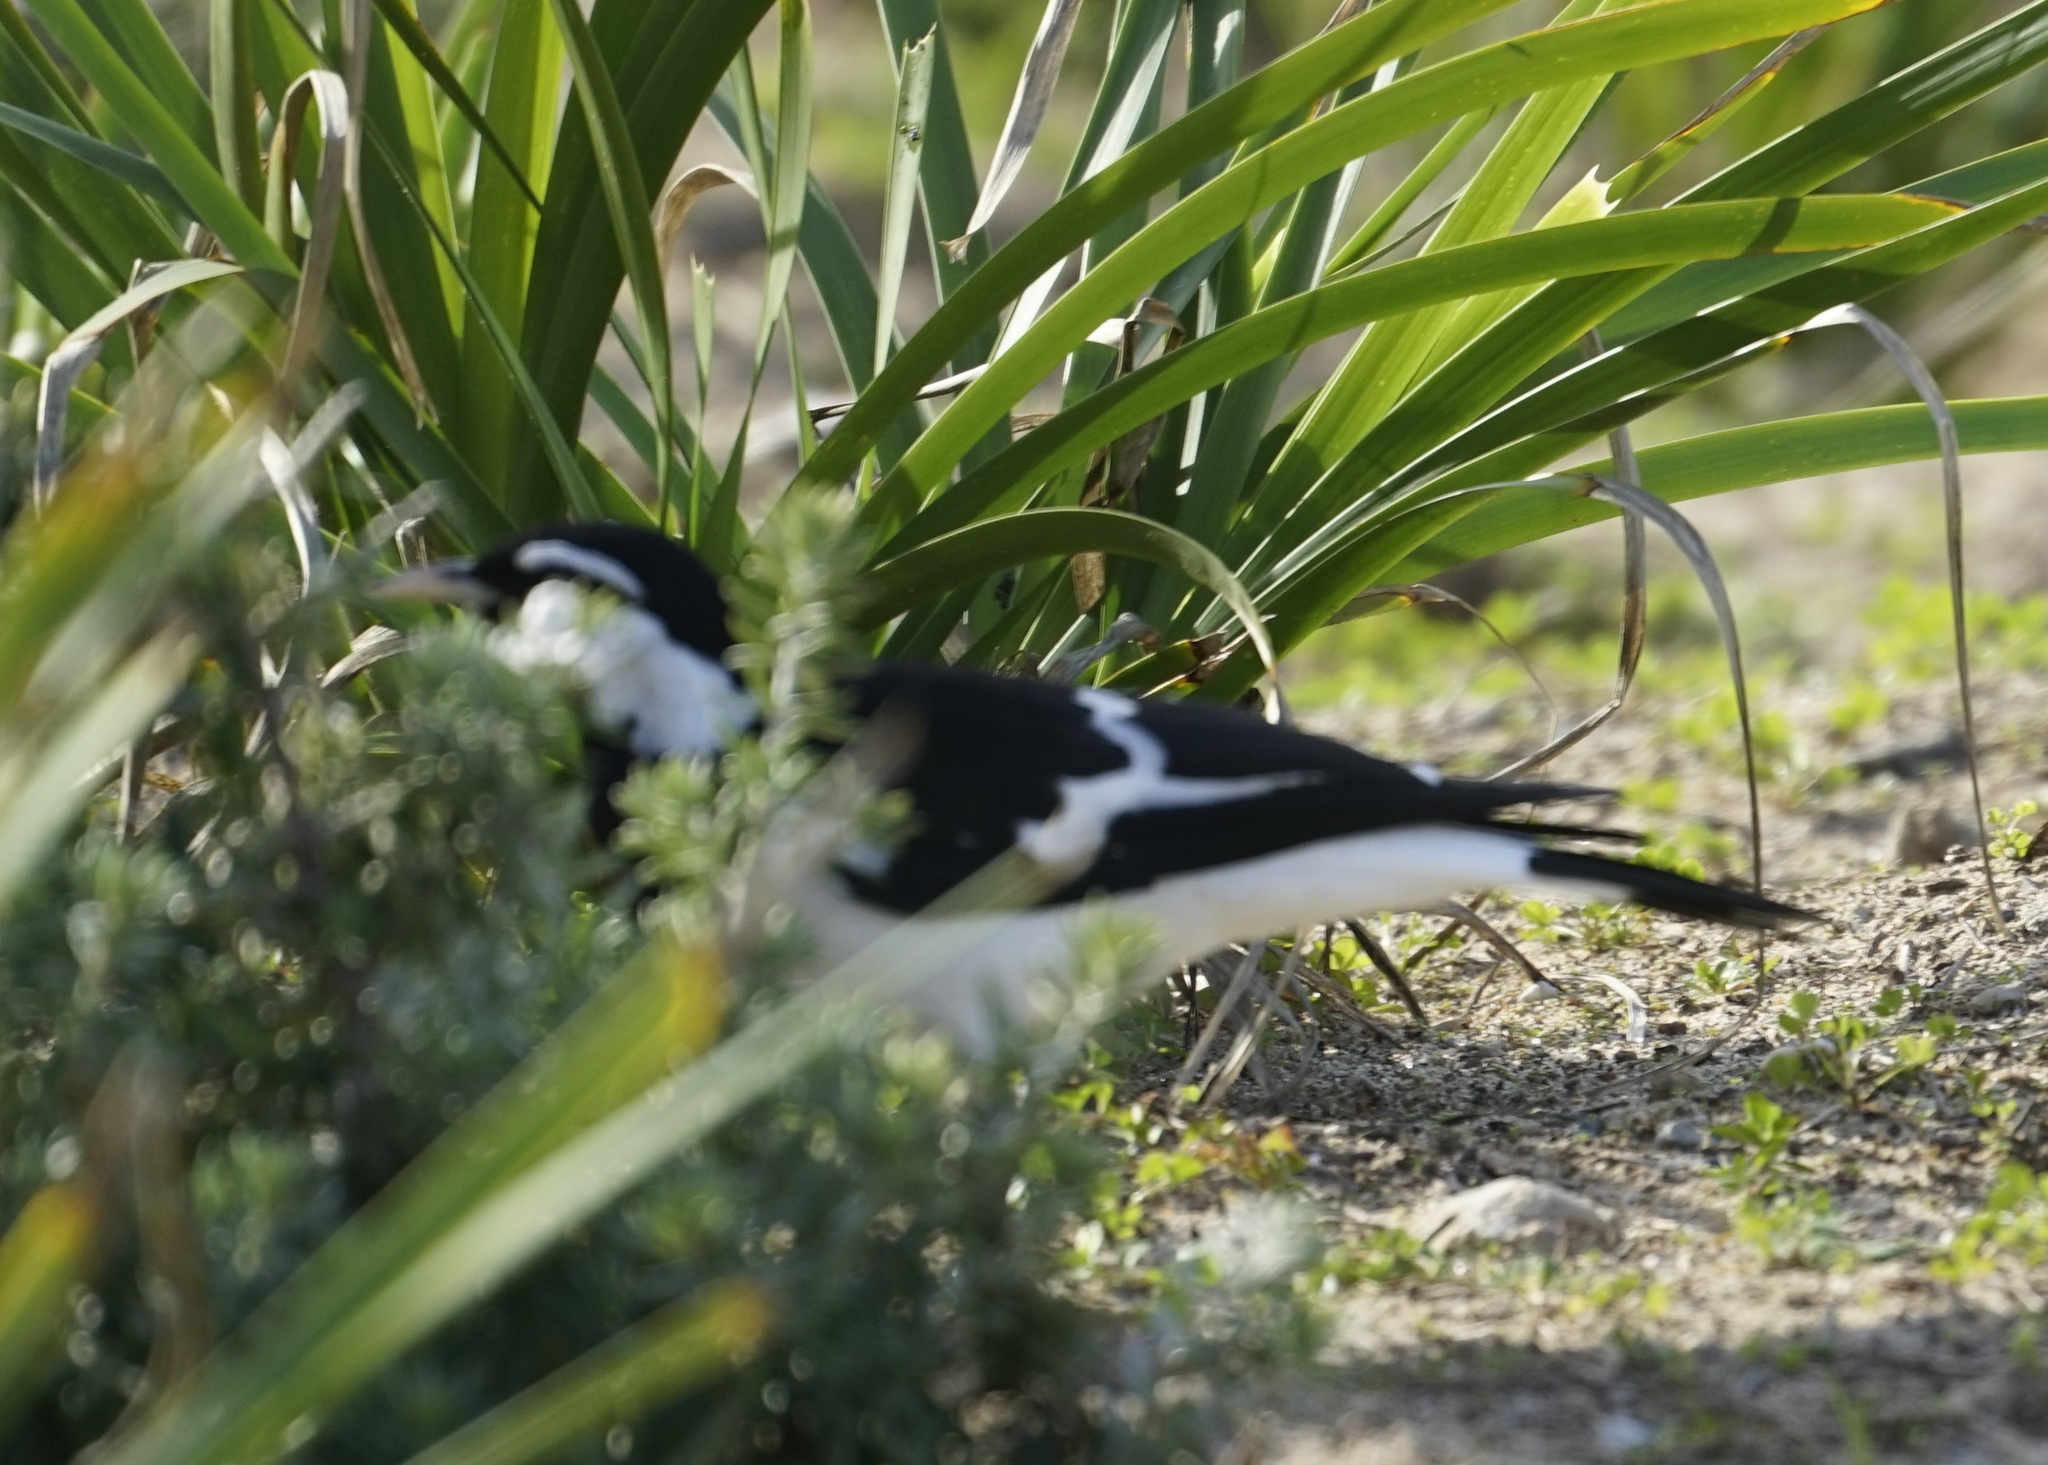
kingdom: Animalia
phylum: Chordata
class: Aves
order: Passeriformes
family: Monarchidae
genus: Grallina
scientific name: Grallina cyanoleuca
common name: Magpie-lark
